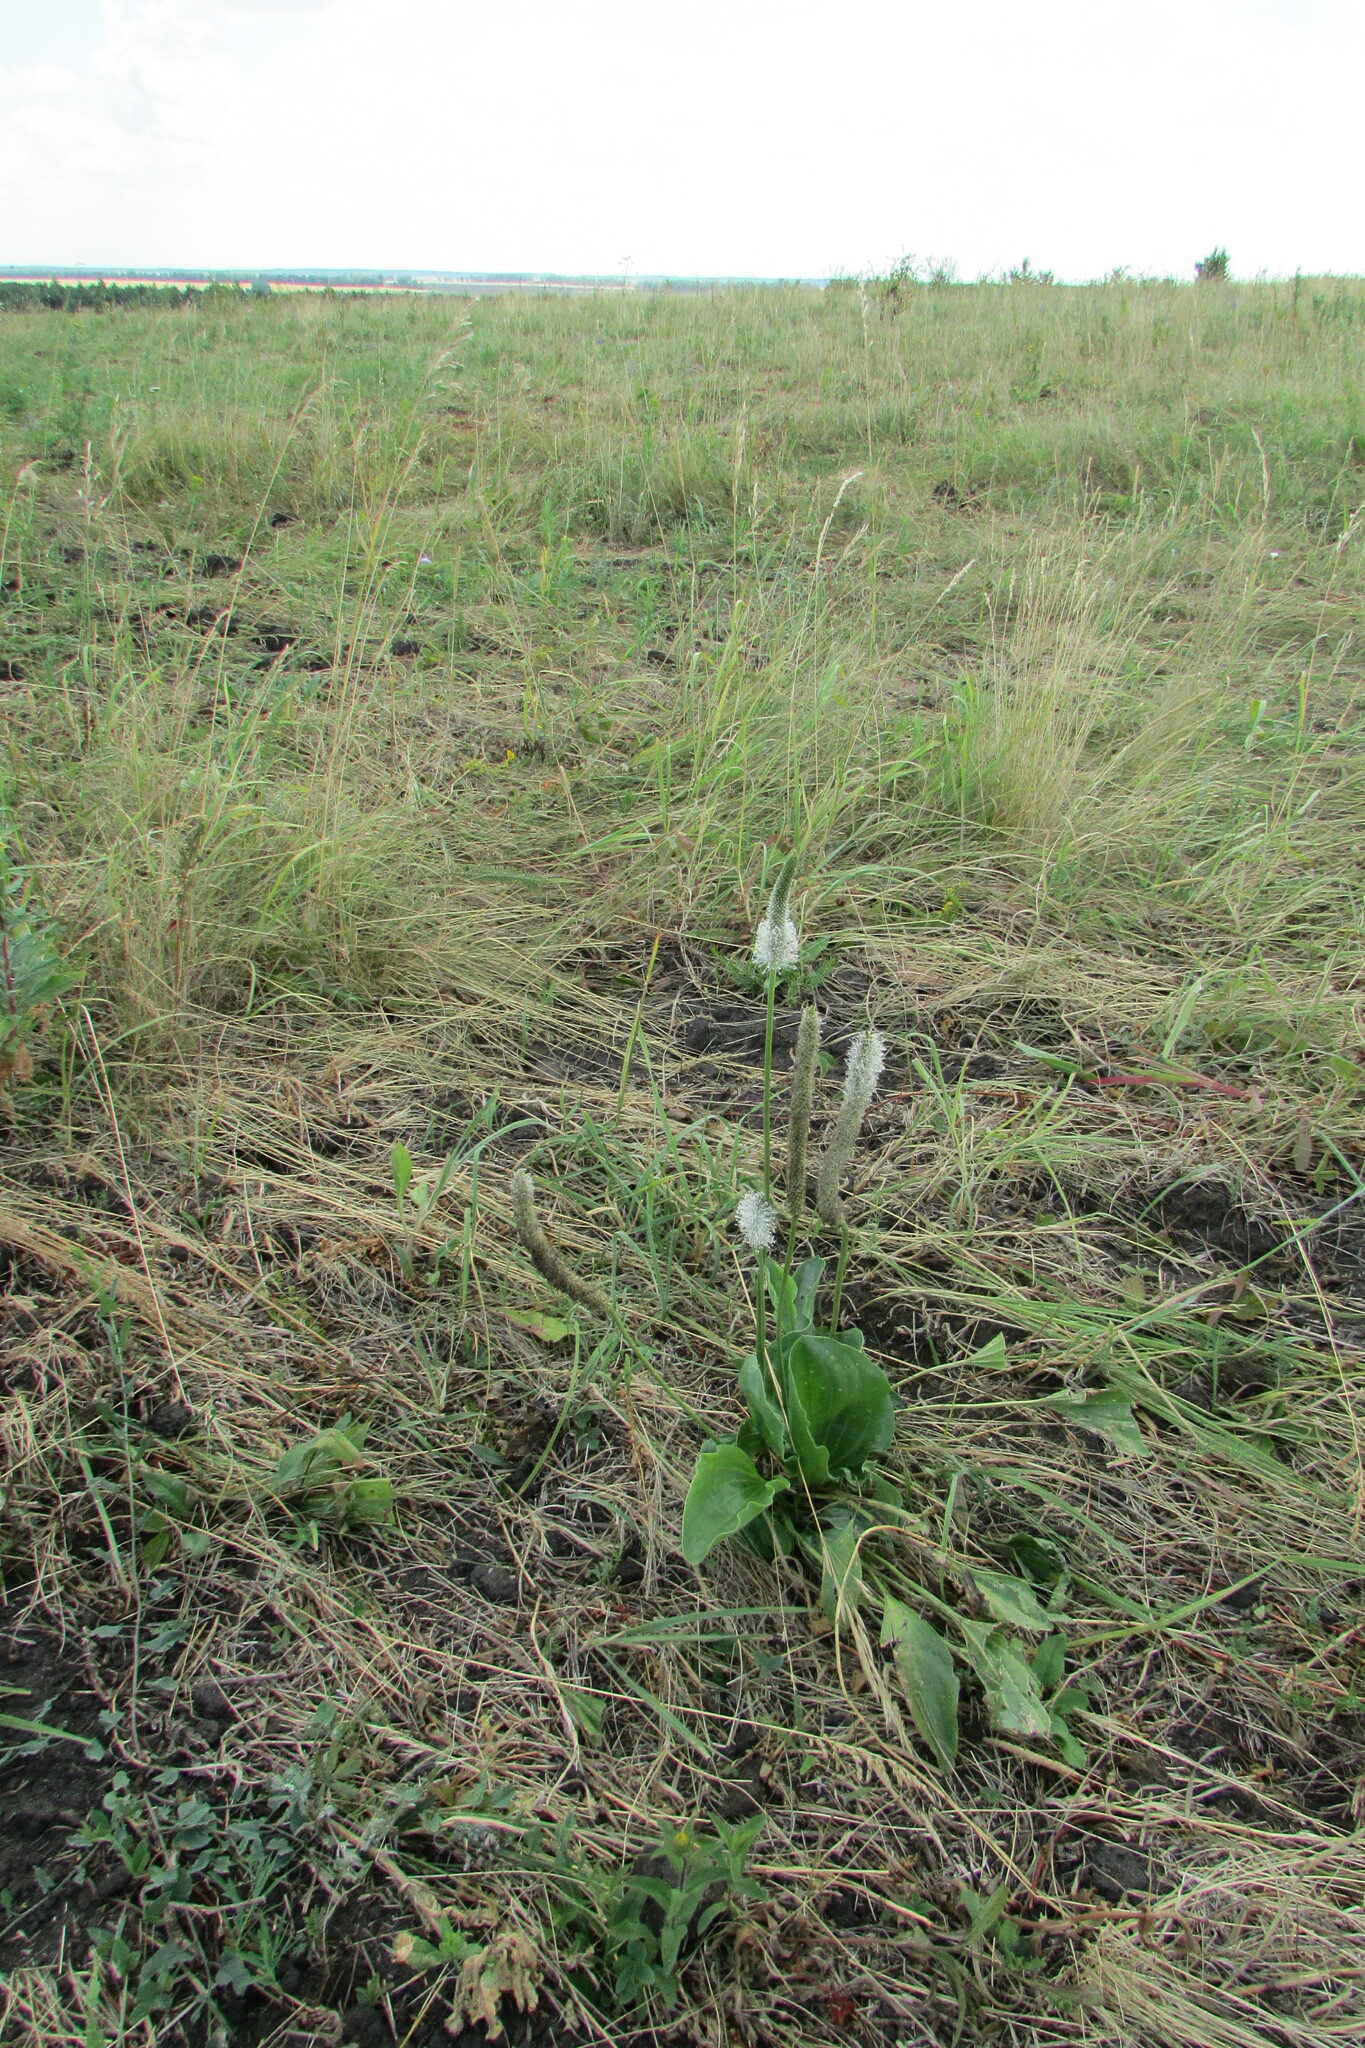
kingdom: Plantae
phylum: Tracheophyta
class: Magnoliopsida
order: Lamiales
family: Plantaginaceae
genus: Plantago
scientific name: Plantago maxima
